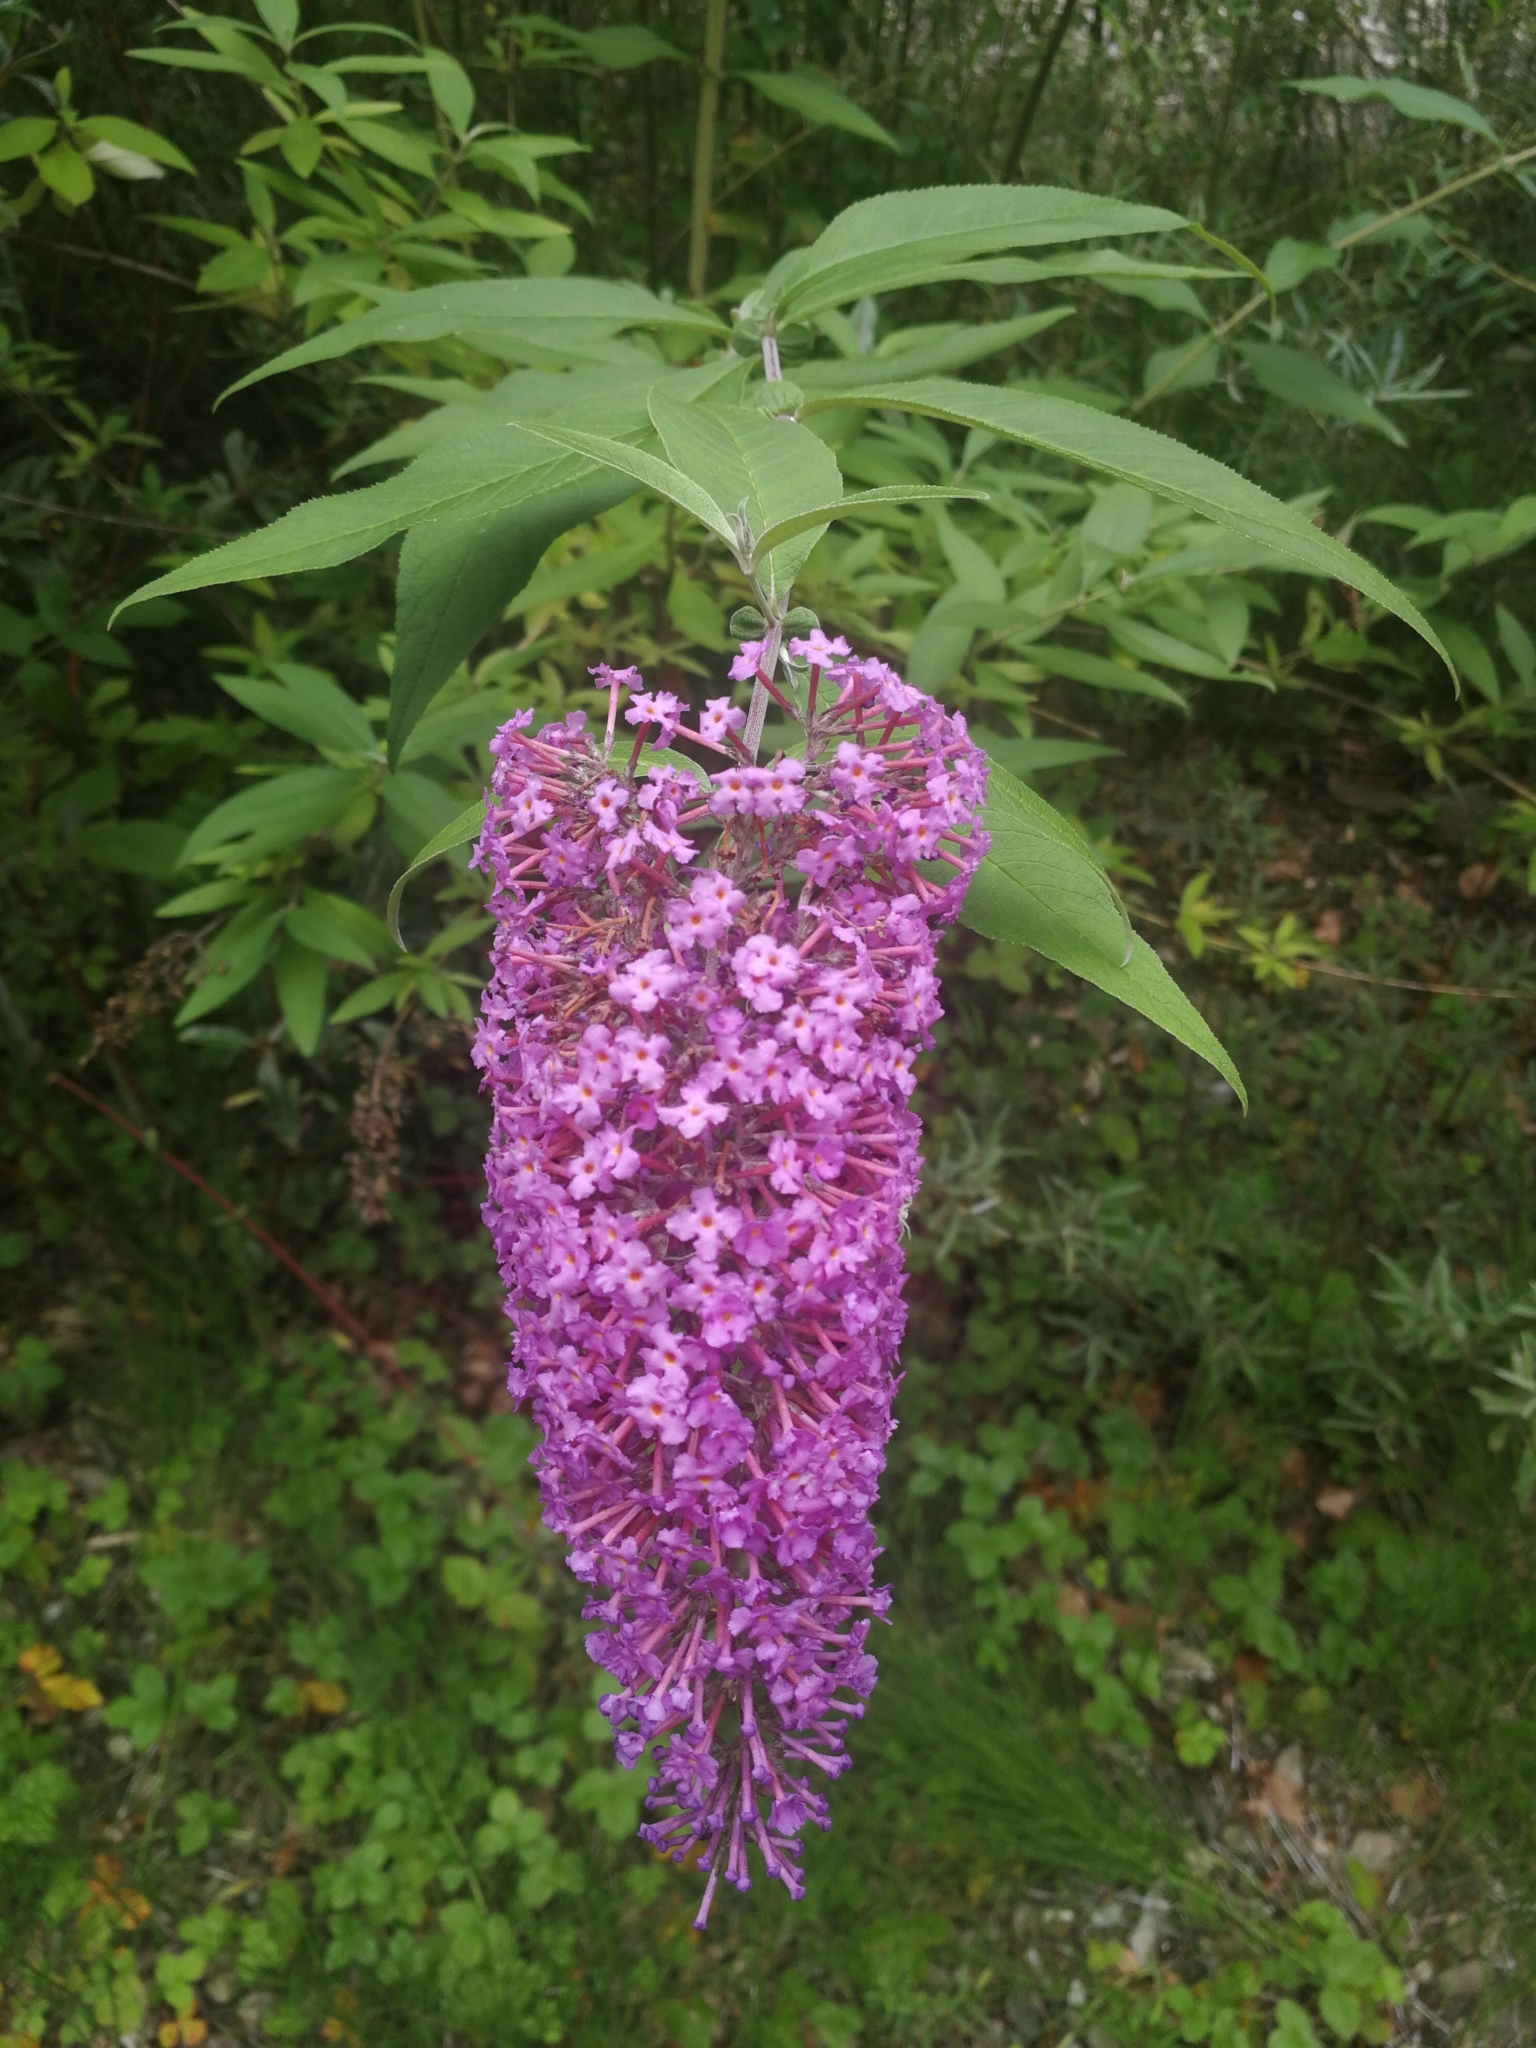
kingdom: Plantae
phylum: Tracheophyta
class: Magnoliopsida
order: Lamiales
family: Scrophulariaceae
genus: Buddleja
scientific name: Buddleja davidii
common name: Butterfly-bush
